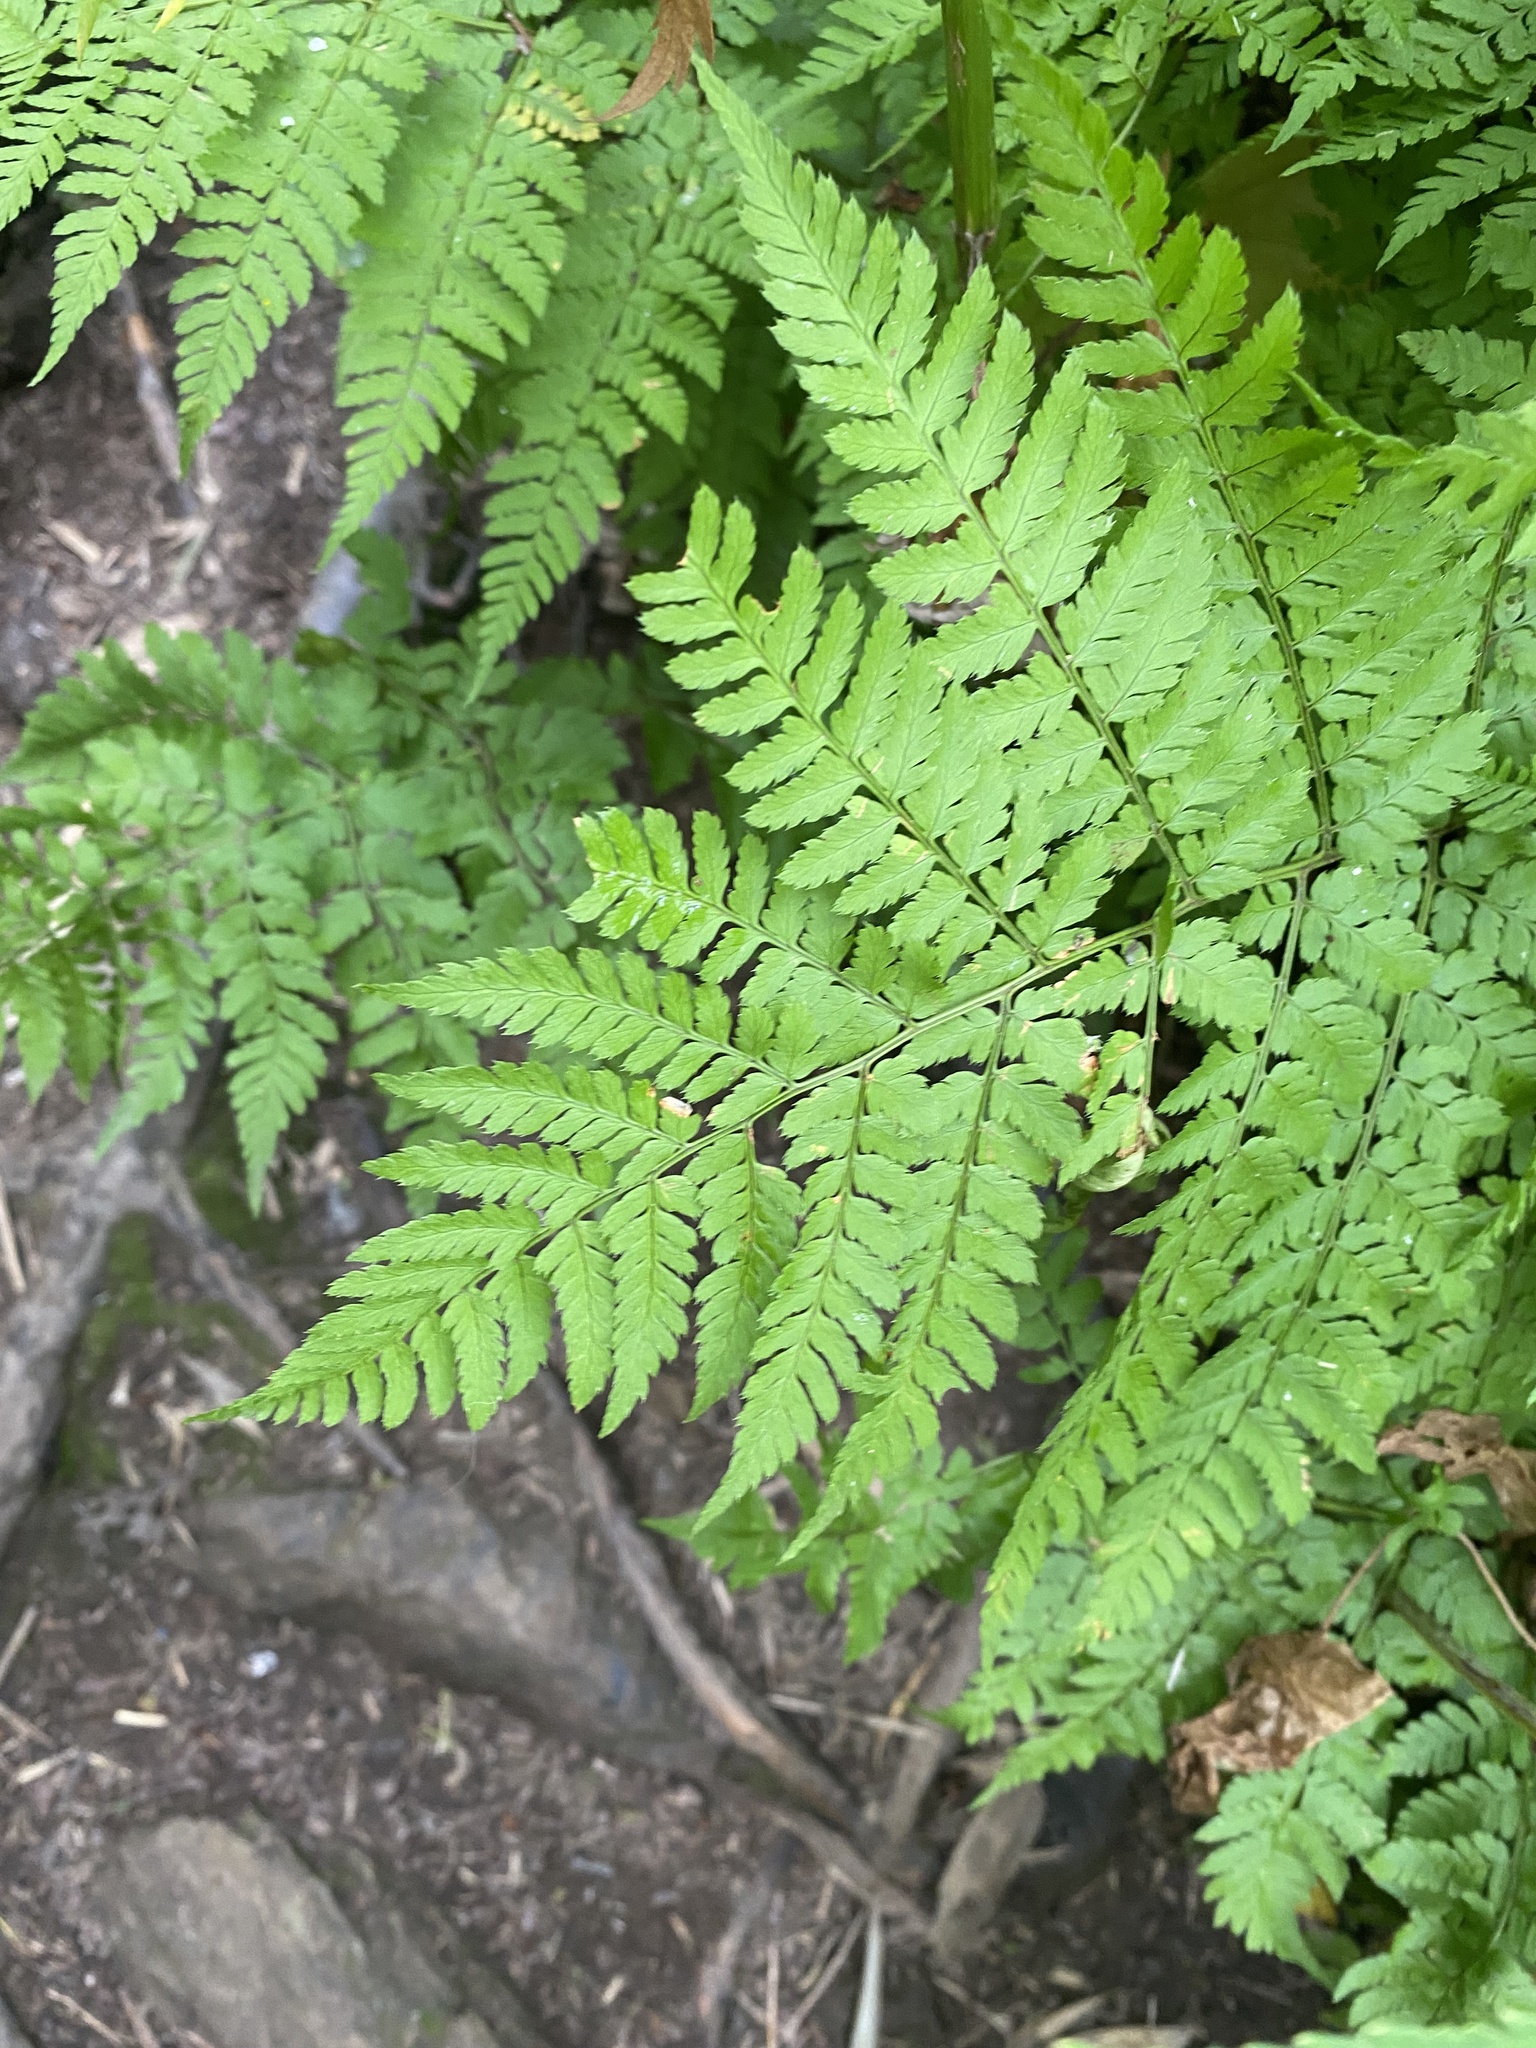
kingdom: Plantae
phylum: Tracheophyta
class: Polypodiopsida
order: Polypodiales
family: Dryopteridaceae
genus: Dryopteris
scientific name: Dryopteris amurensis
